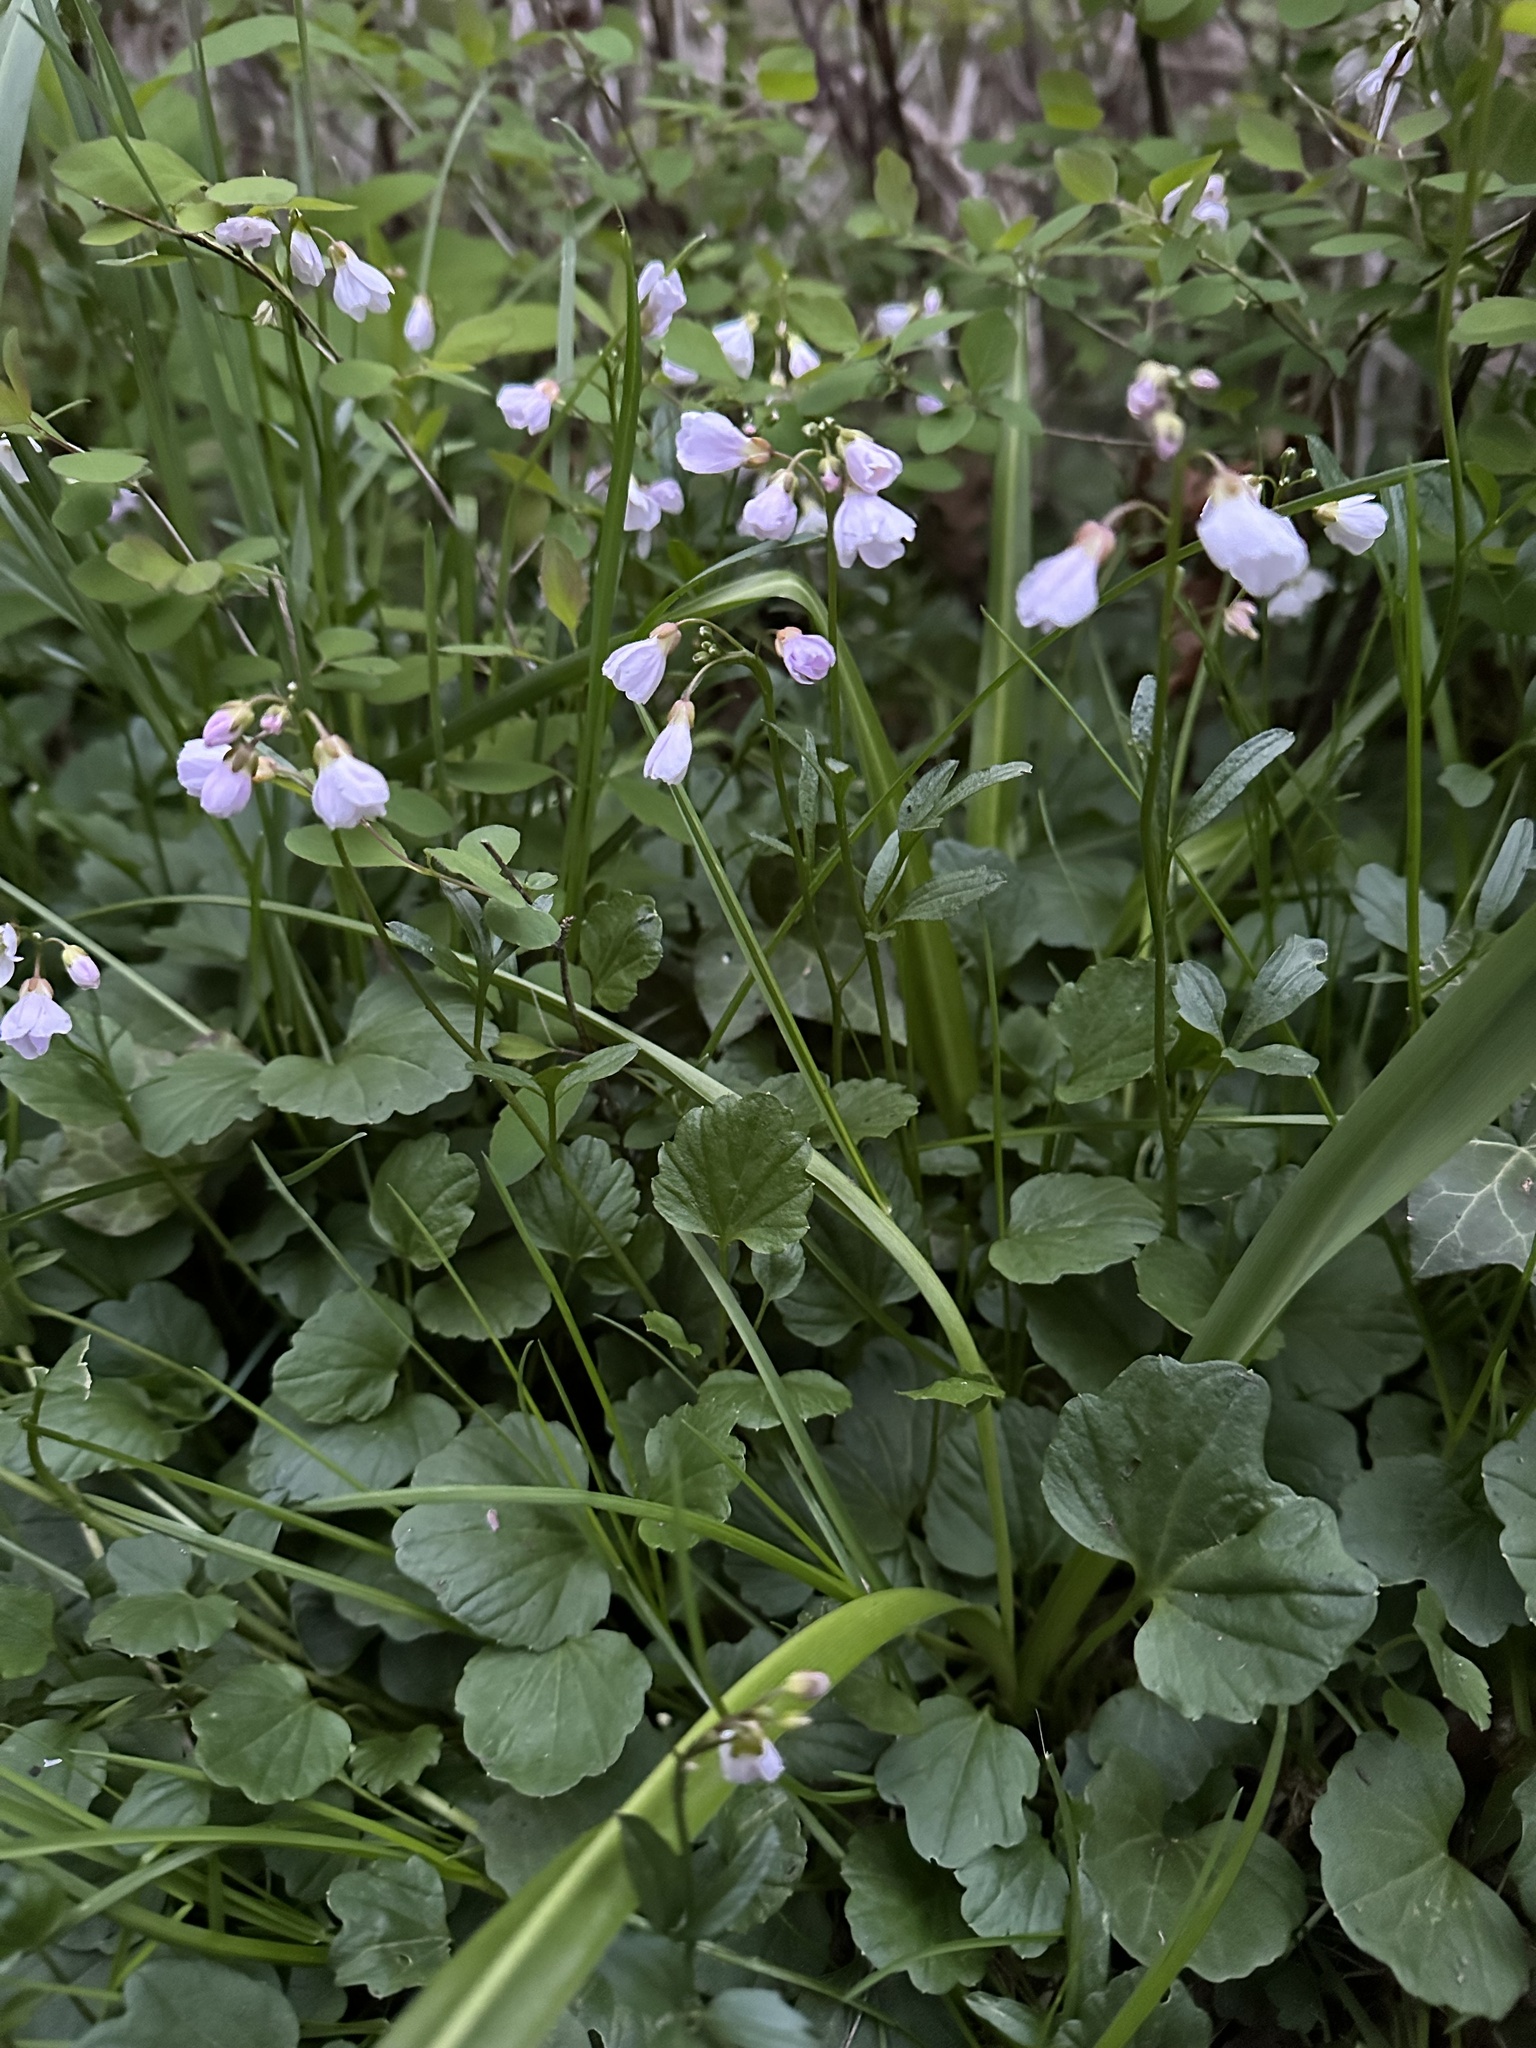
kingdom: Plantae
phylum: Tracheophyta
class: Magnoliopsida
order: Brassicales
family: Brassicaceae
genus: Cardamine
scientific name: Cardamine nuttallii
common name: Nuttall's toothwort
